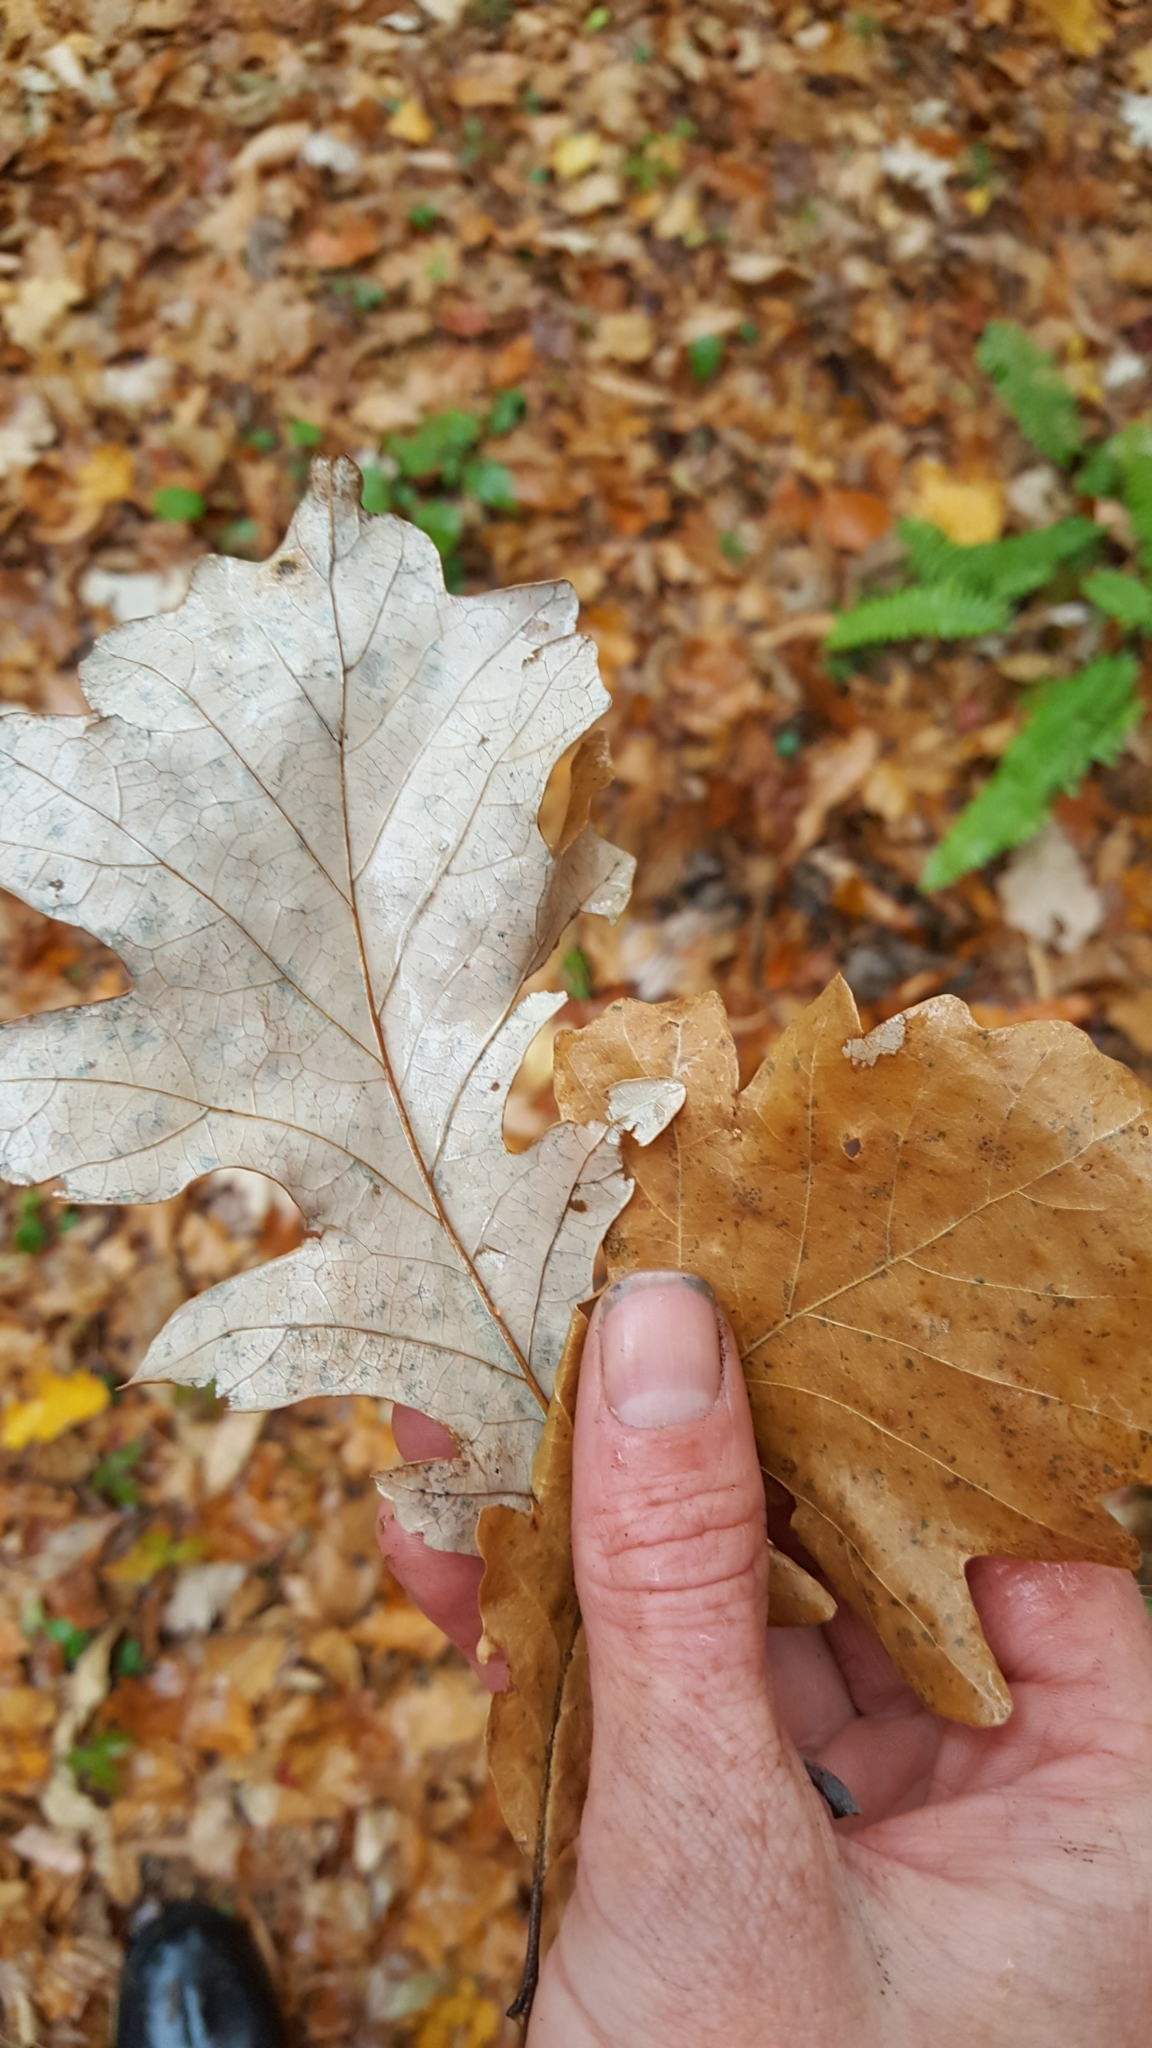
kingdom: Plantae
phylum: Tracheophyta
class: Magnoliopsida
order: Fagales
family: Fagaceae
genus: Quercus
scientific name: Quercus macrocarpa
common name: Bur oak
